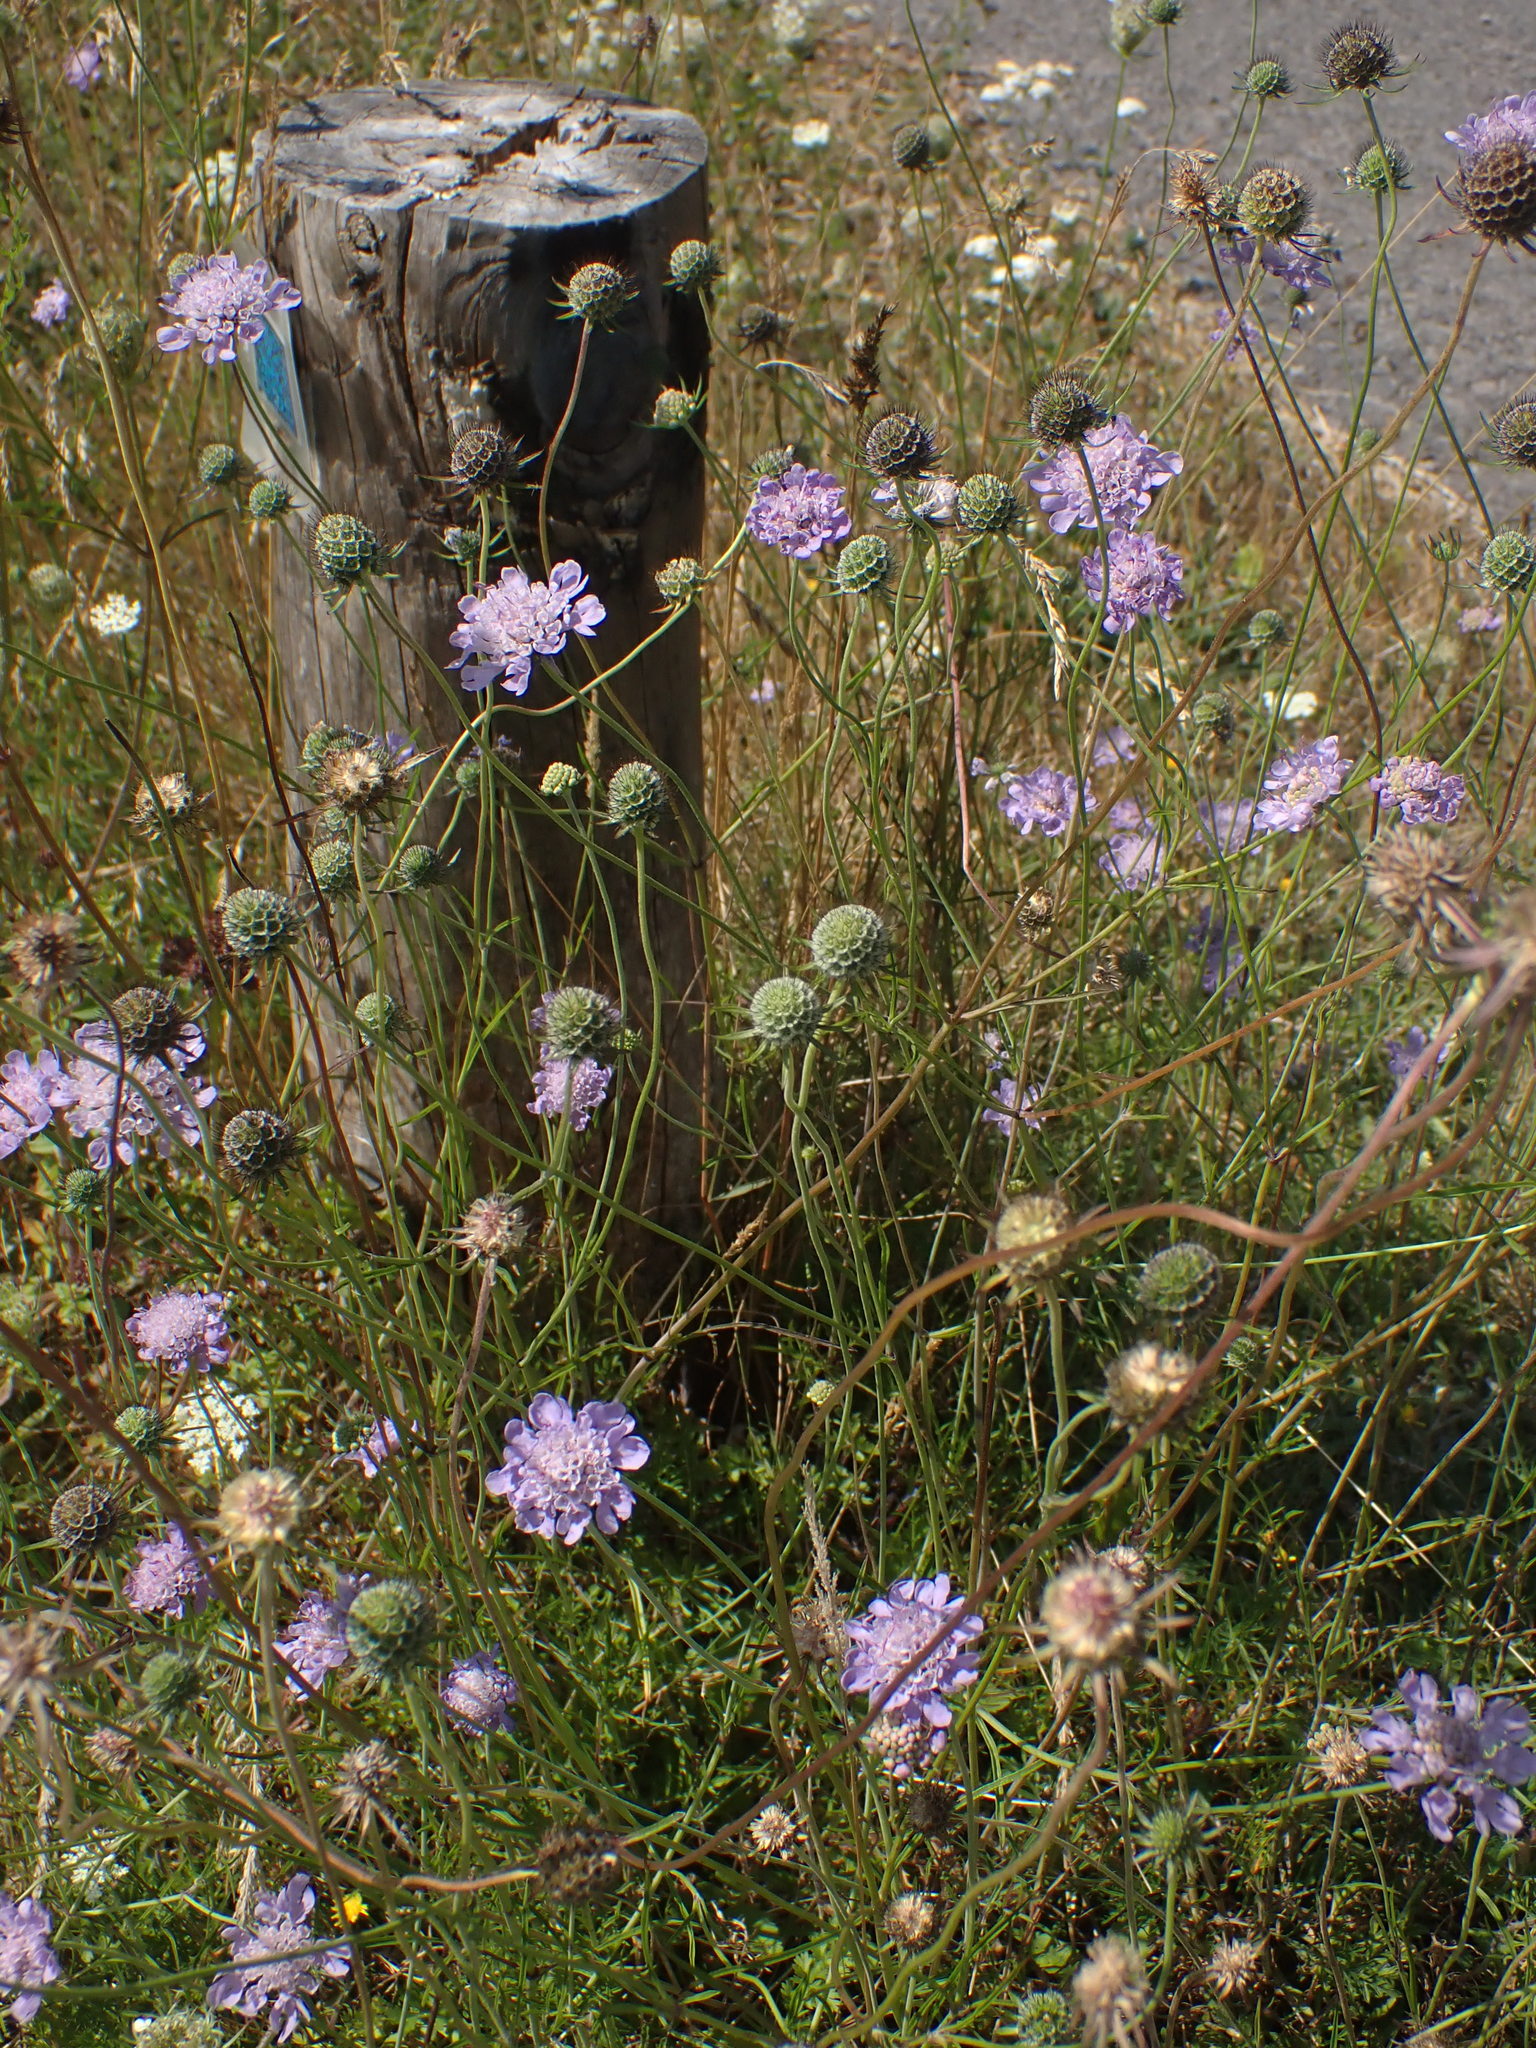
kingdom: Plantae
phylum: Tracheophyta
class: Magnoliopsida
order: Dipsacales
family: Caprifoliaceae
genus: Scabiosa
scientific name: Scabiosa columbaria
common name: Small scabious
